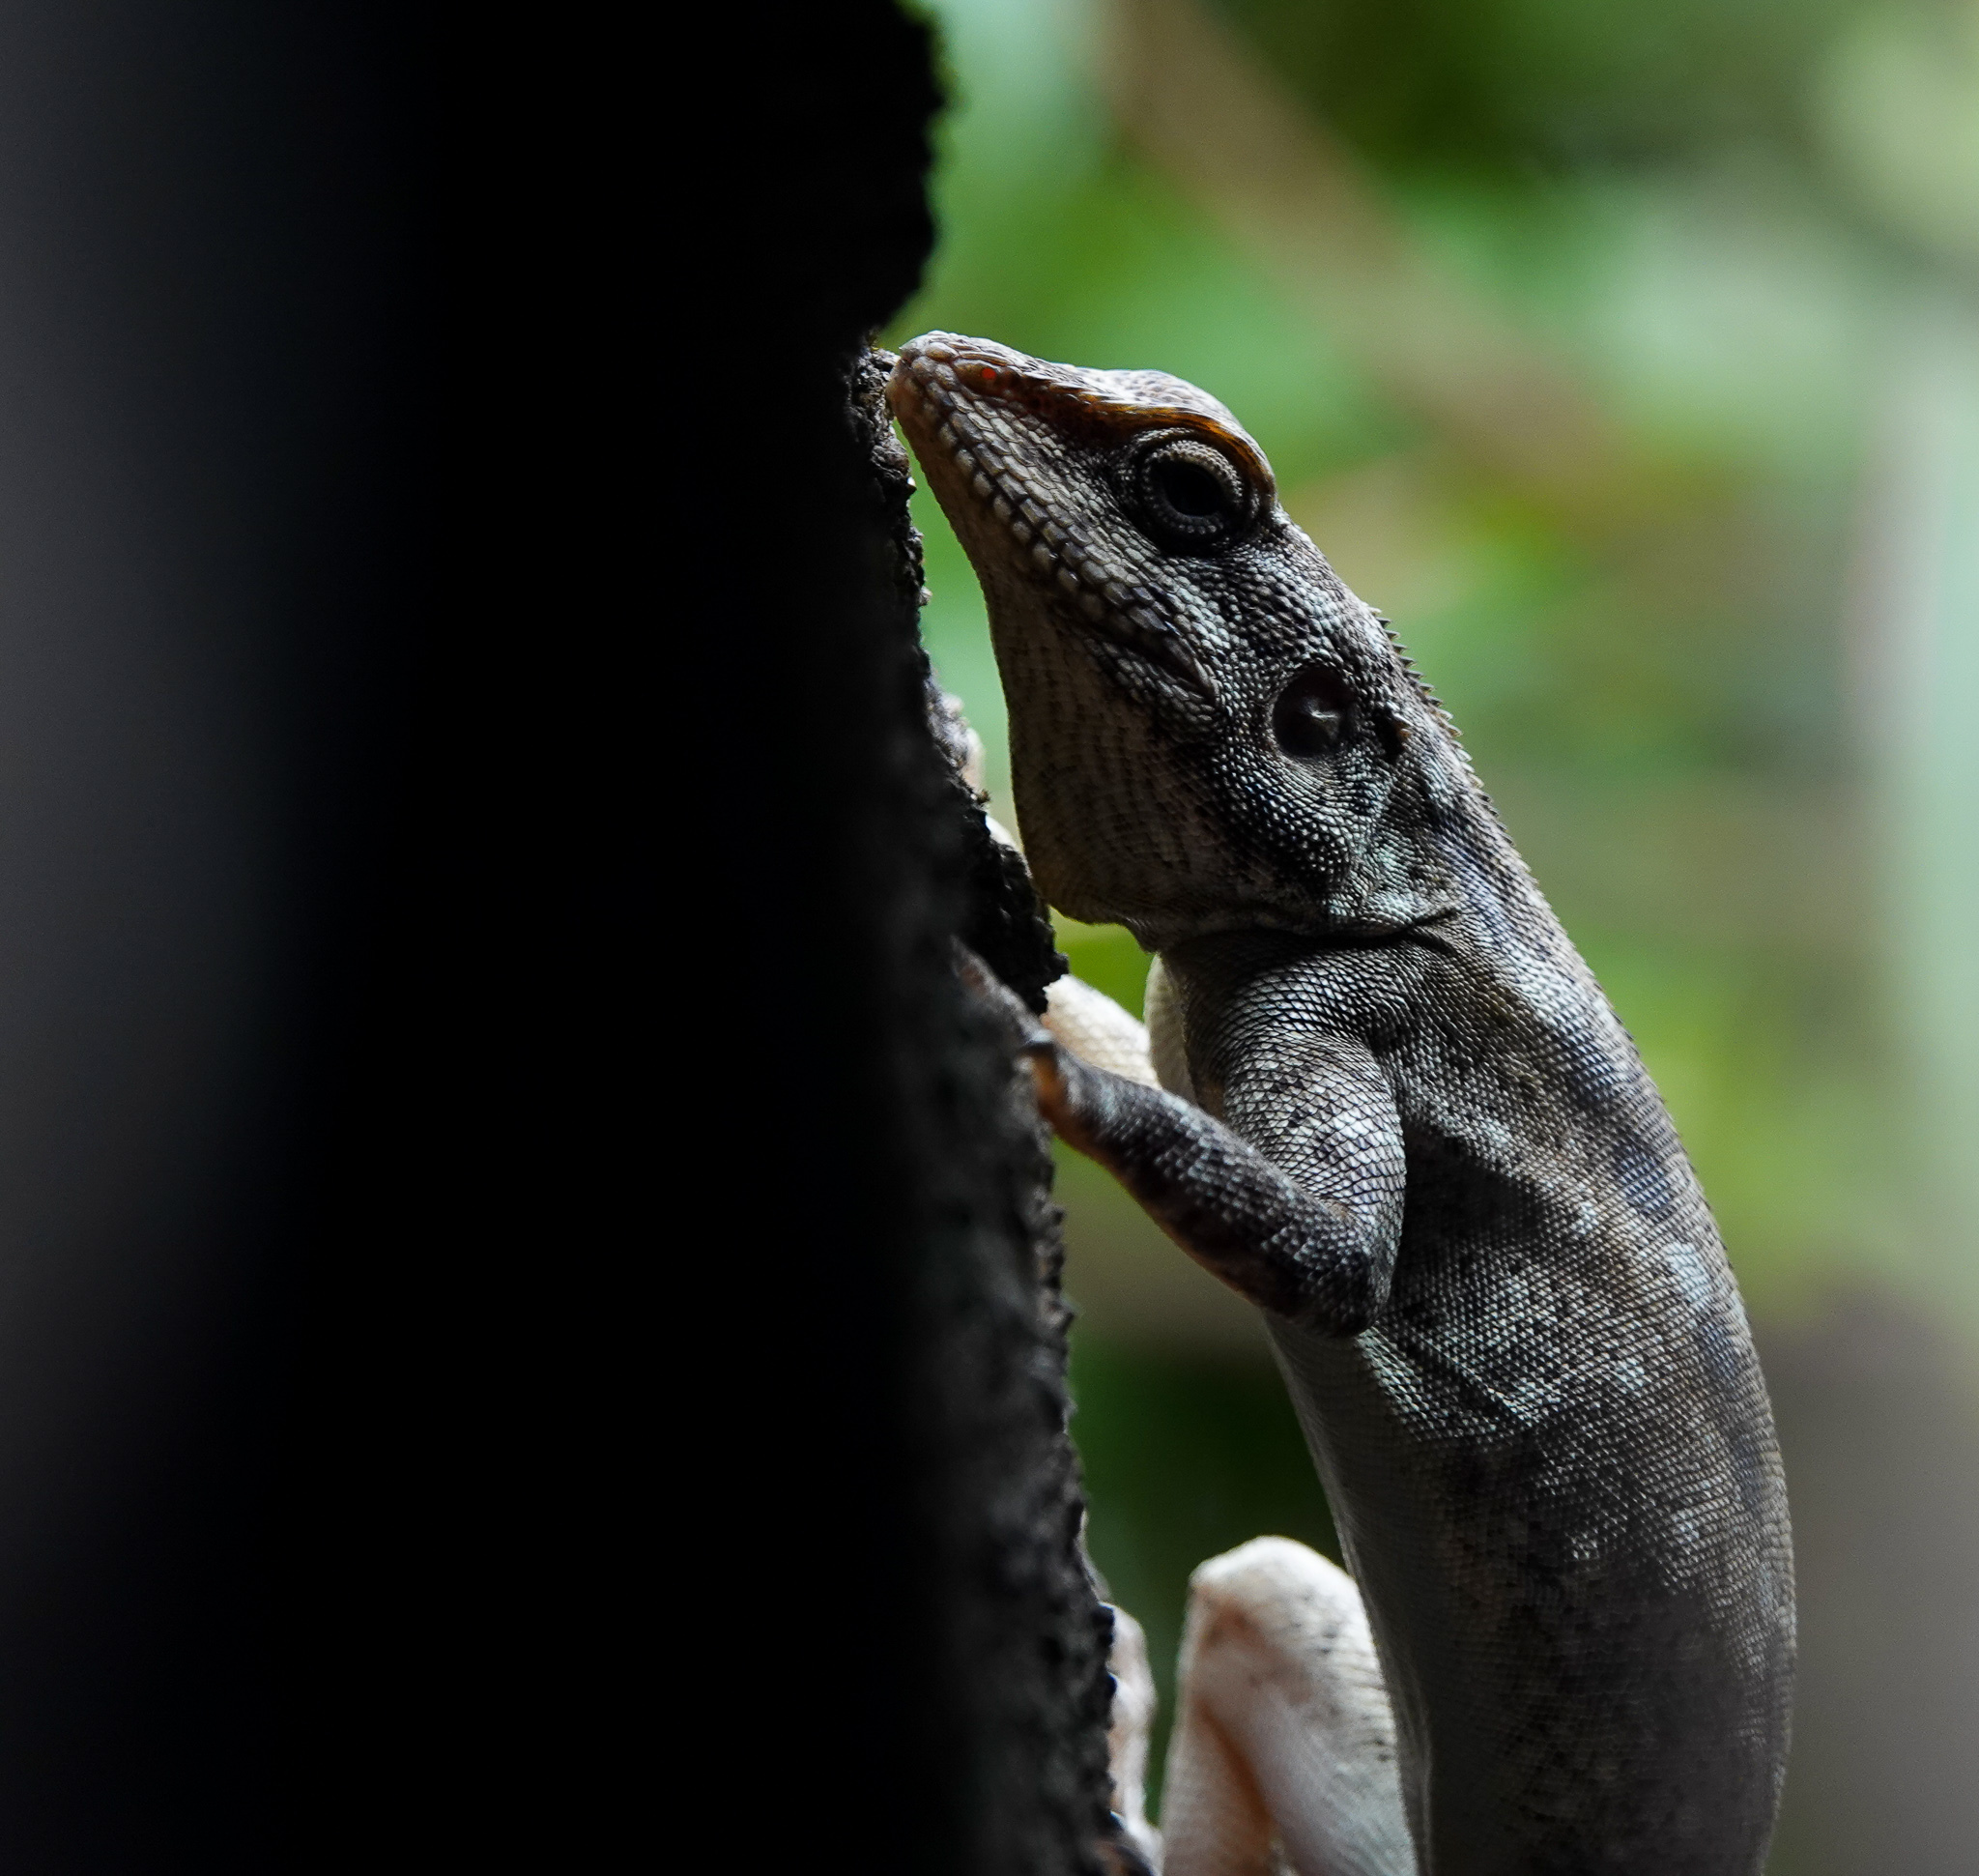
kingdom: Animalia
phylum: Chordata
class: Squamata
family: Agamidae
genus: Psammophilus
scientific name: Psammophilus dorsalis
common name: South indian rock agama
